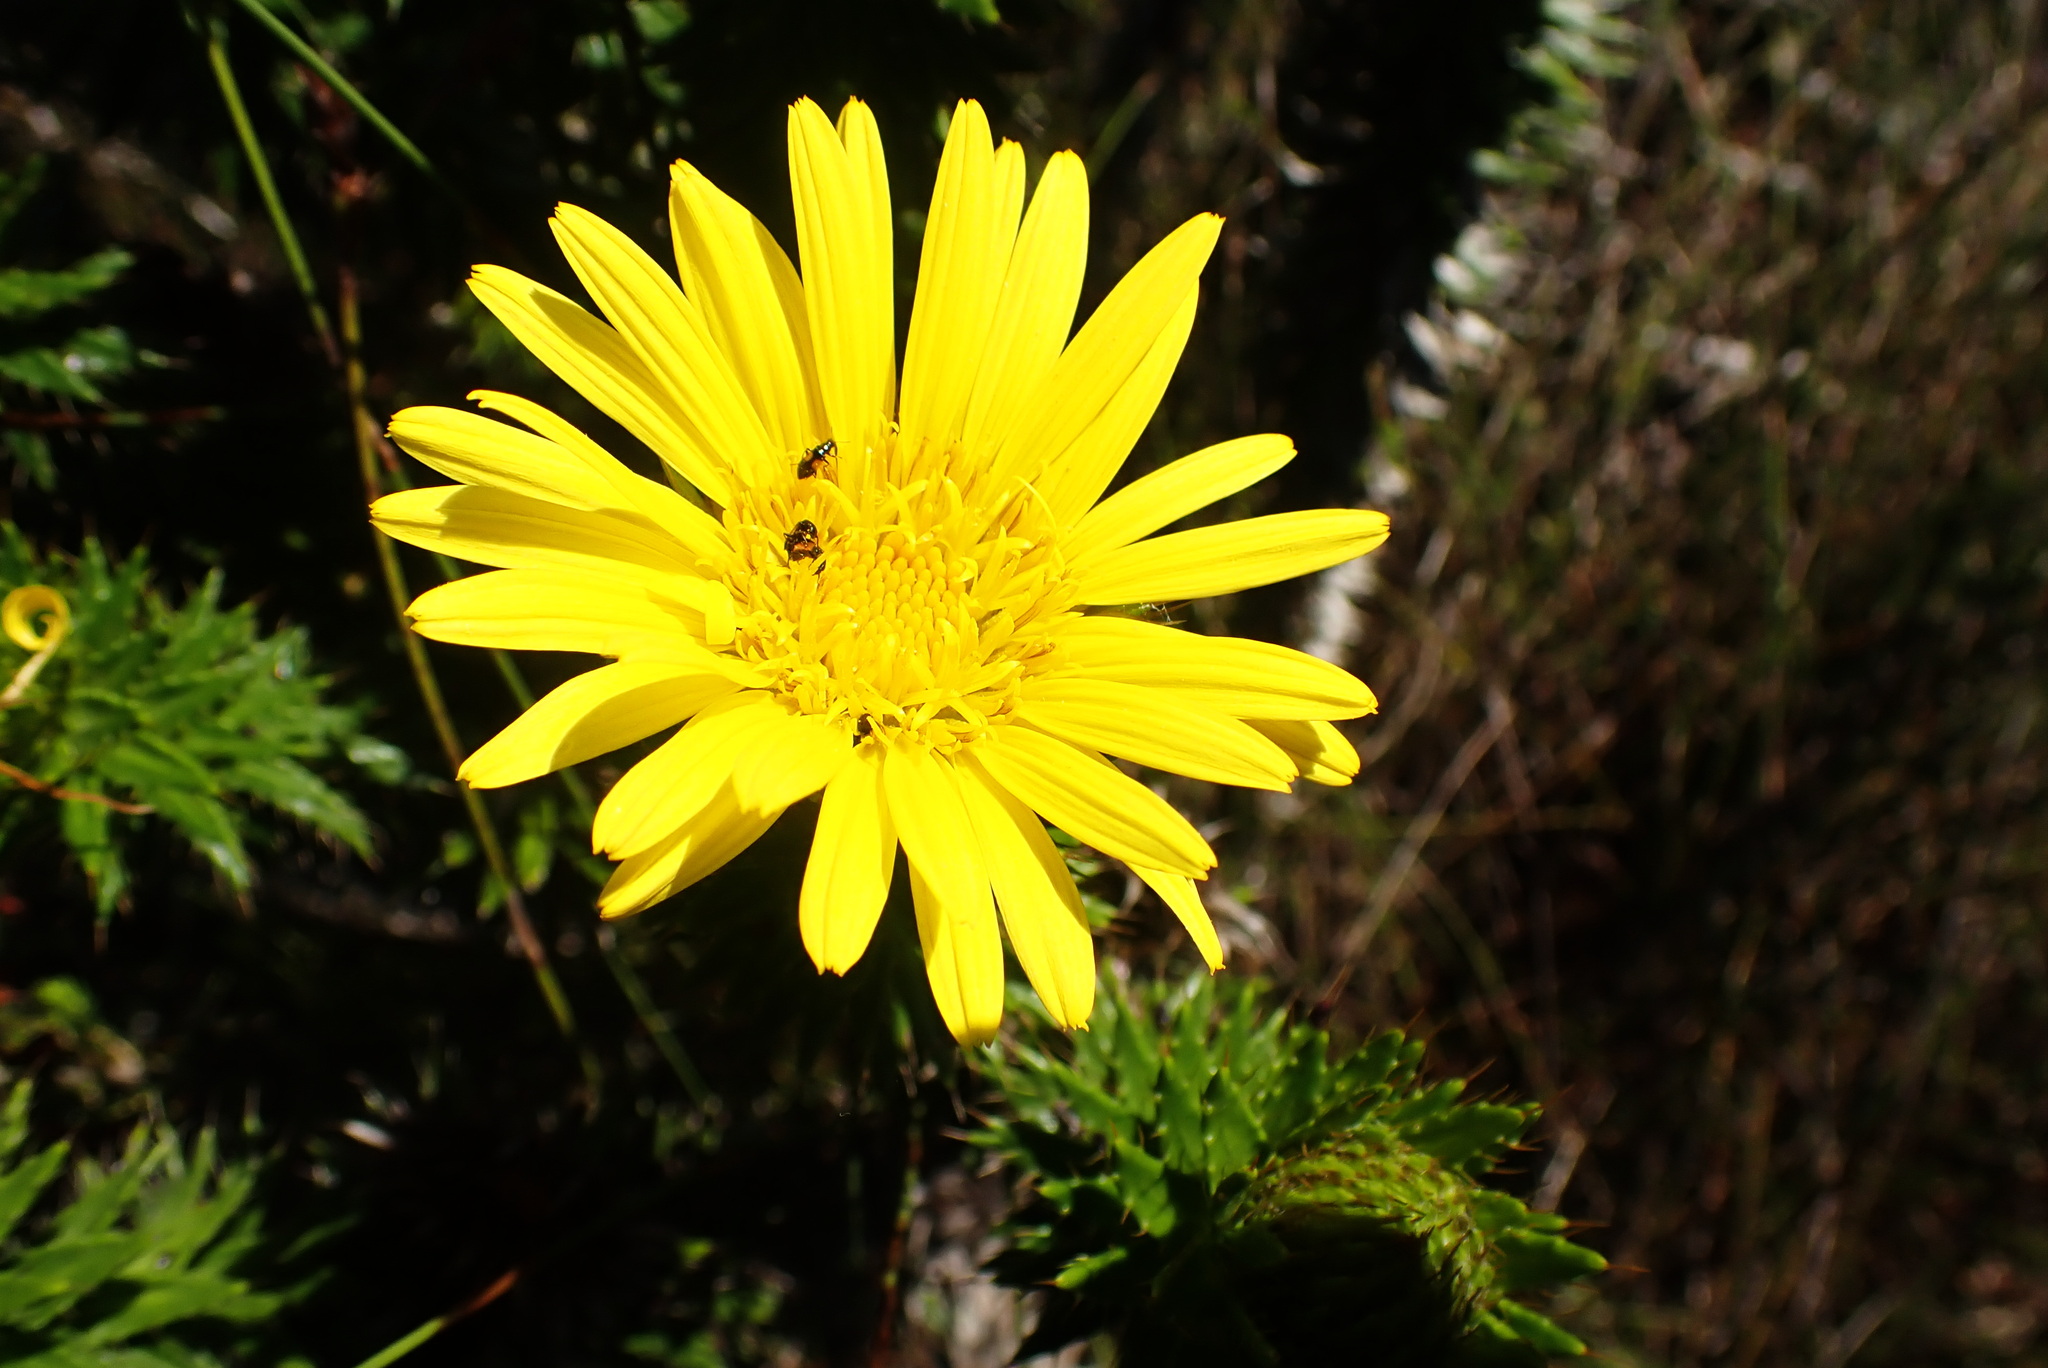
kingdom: Plantae
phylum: Tracheophyta
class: Magnoliopsida
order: Asterales
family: Asteraceae
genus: Cullumia
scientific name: Cullumia carlinoides
